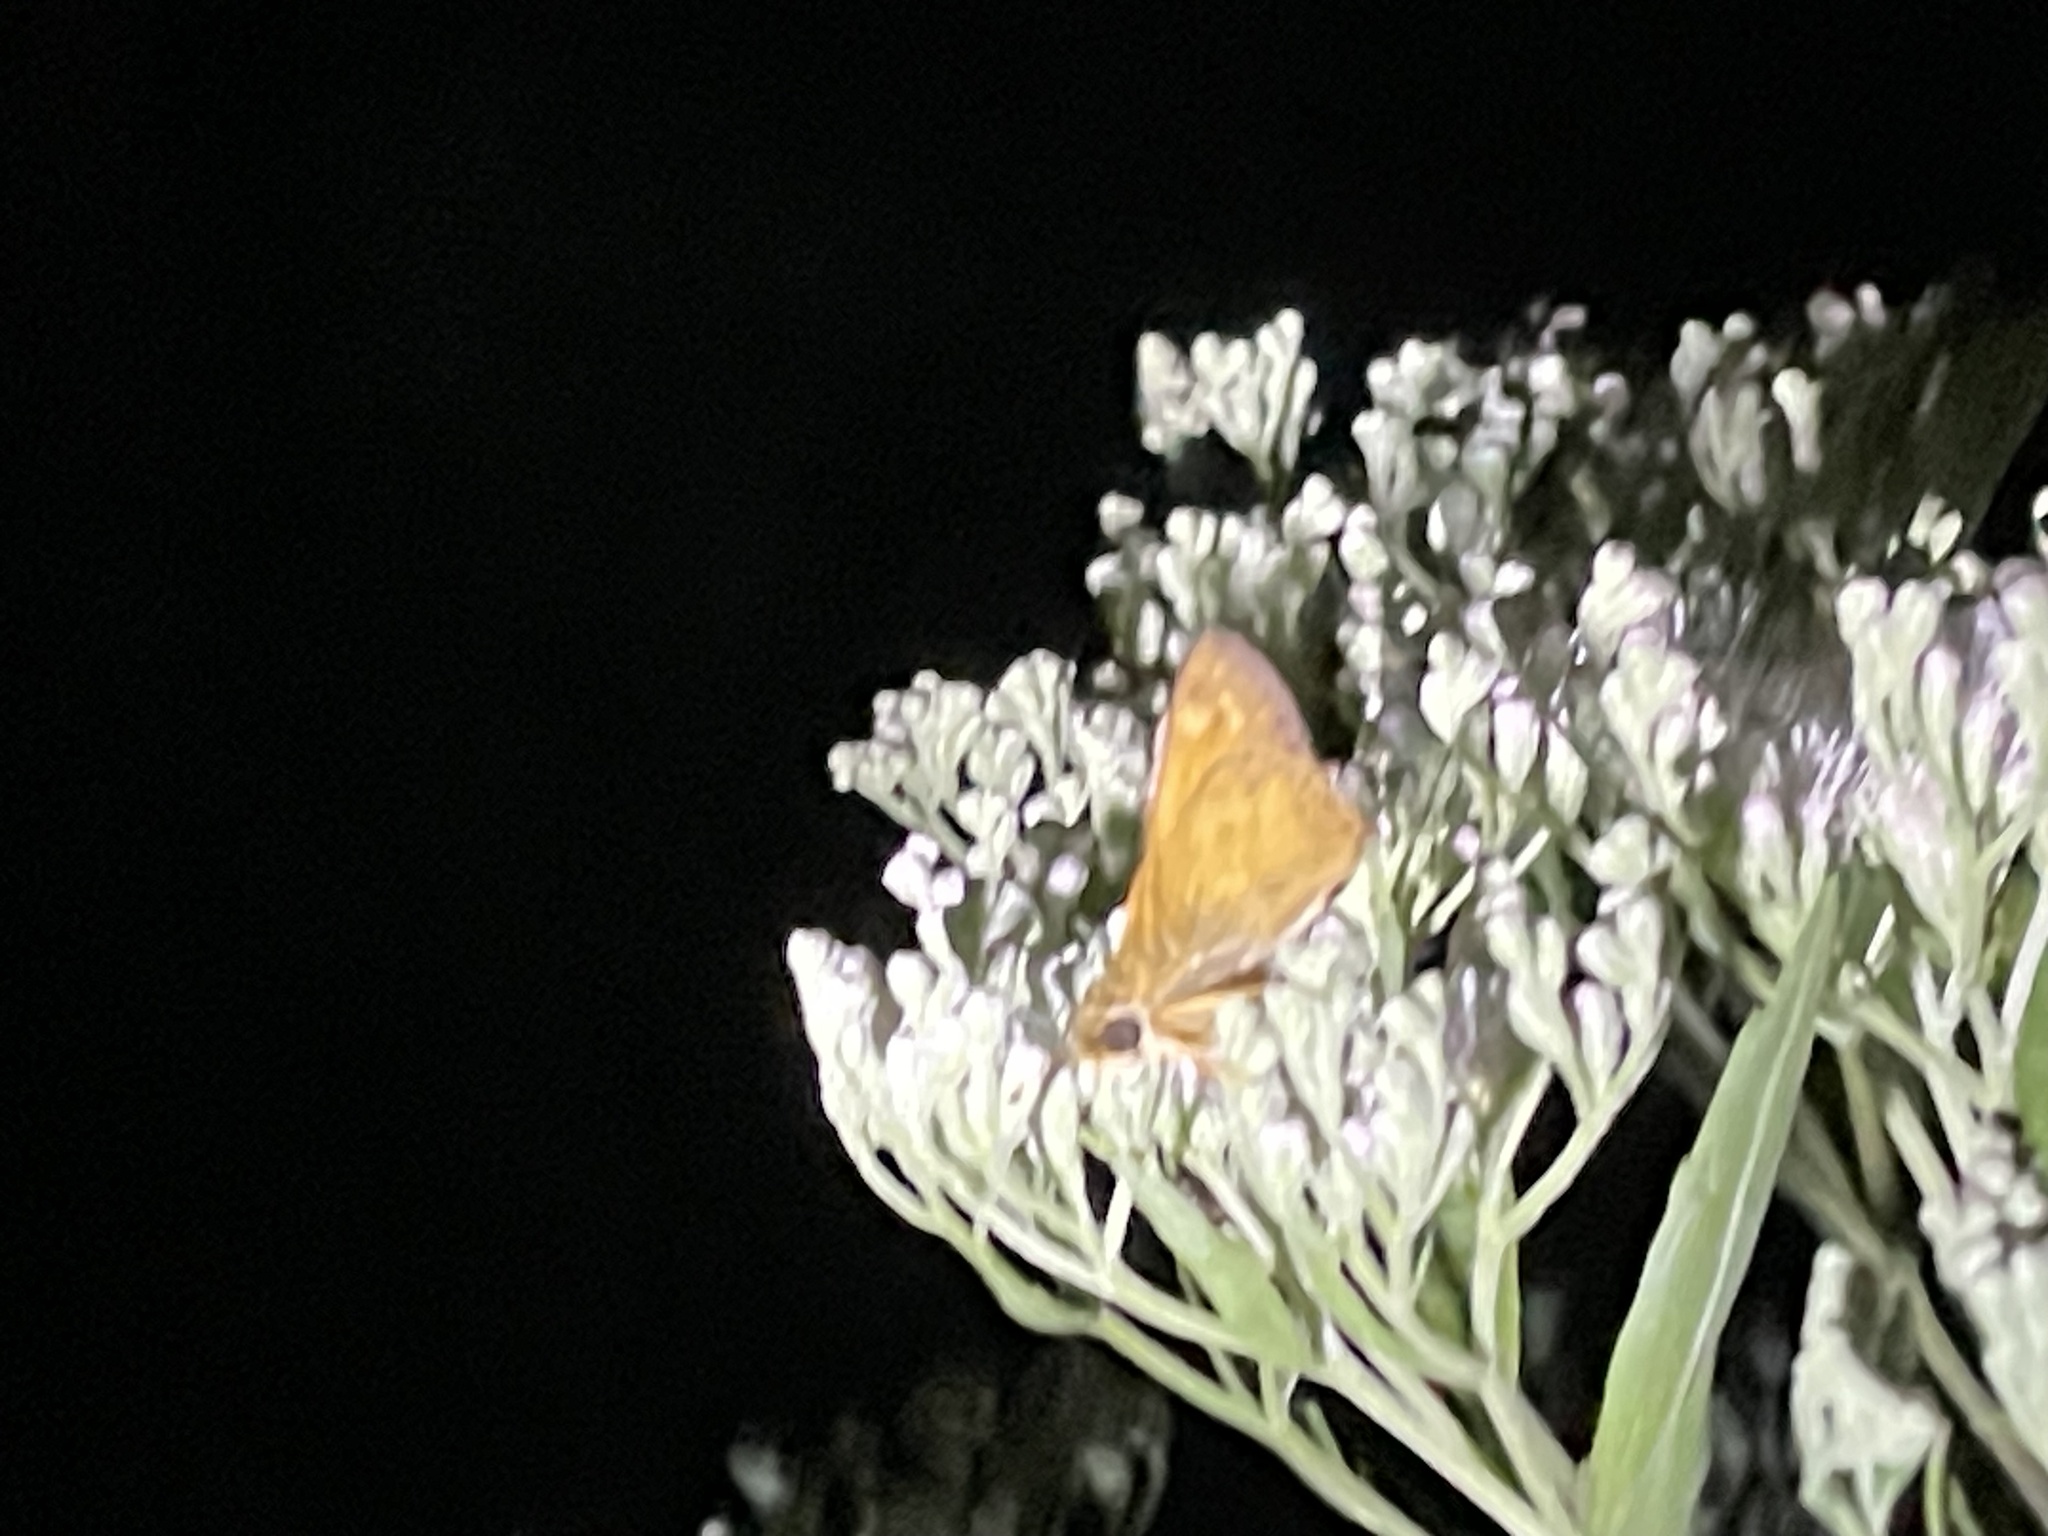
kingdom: Animalia
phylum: Arthropoda
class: Insecta
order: Lepidoptera
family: Hesperiidae
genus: Atalopedes
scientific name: Atalopedes
